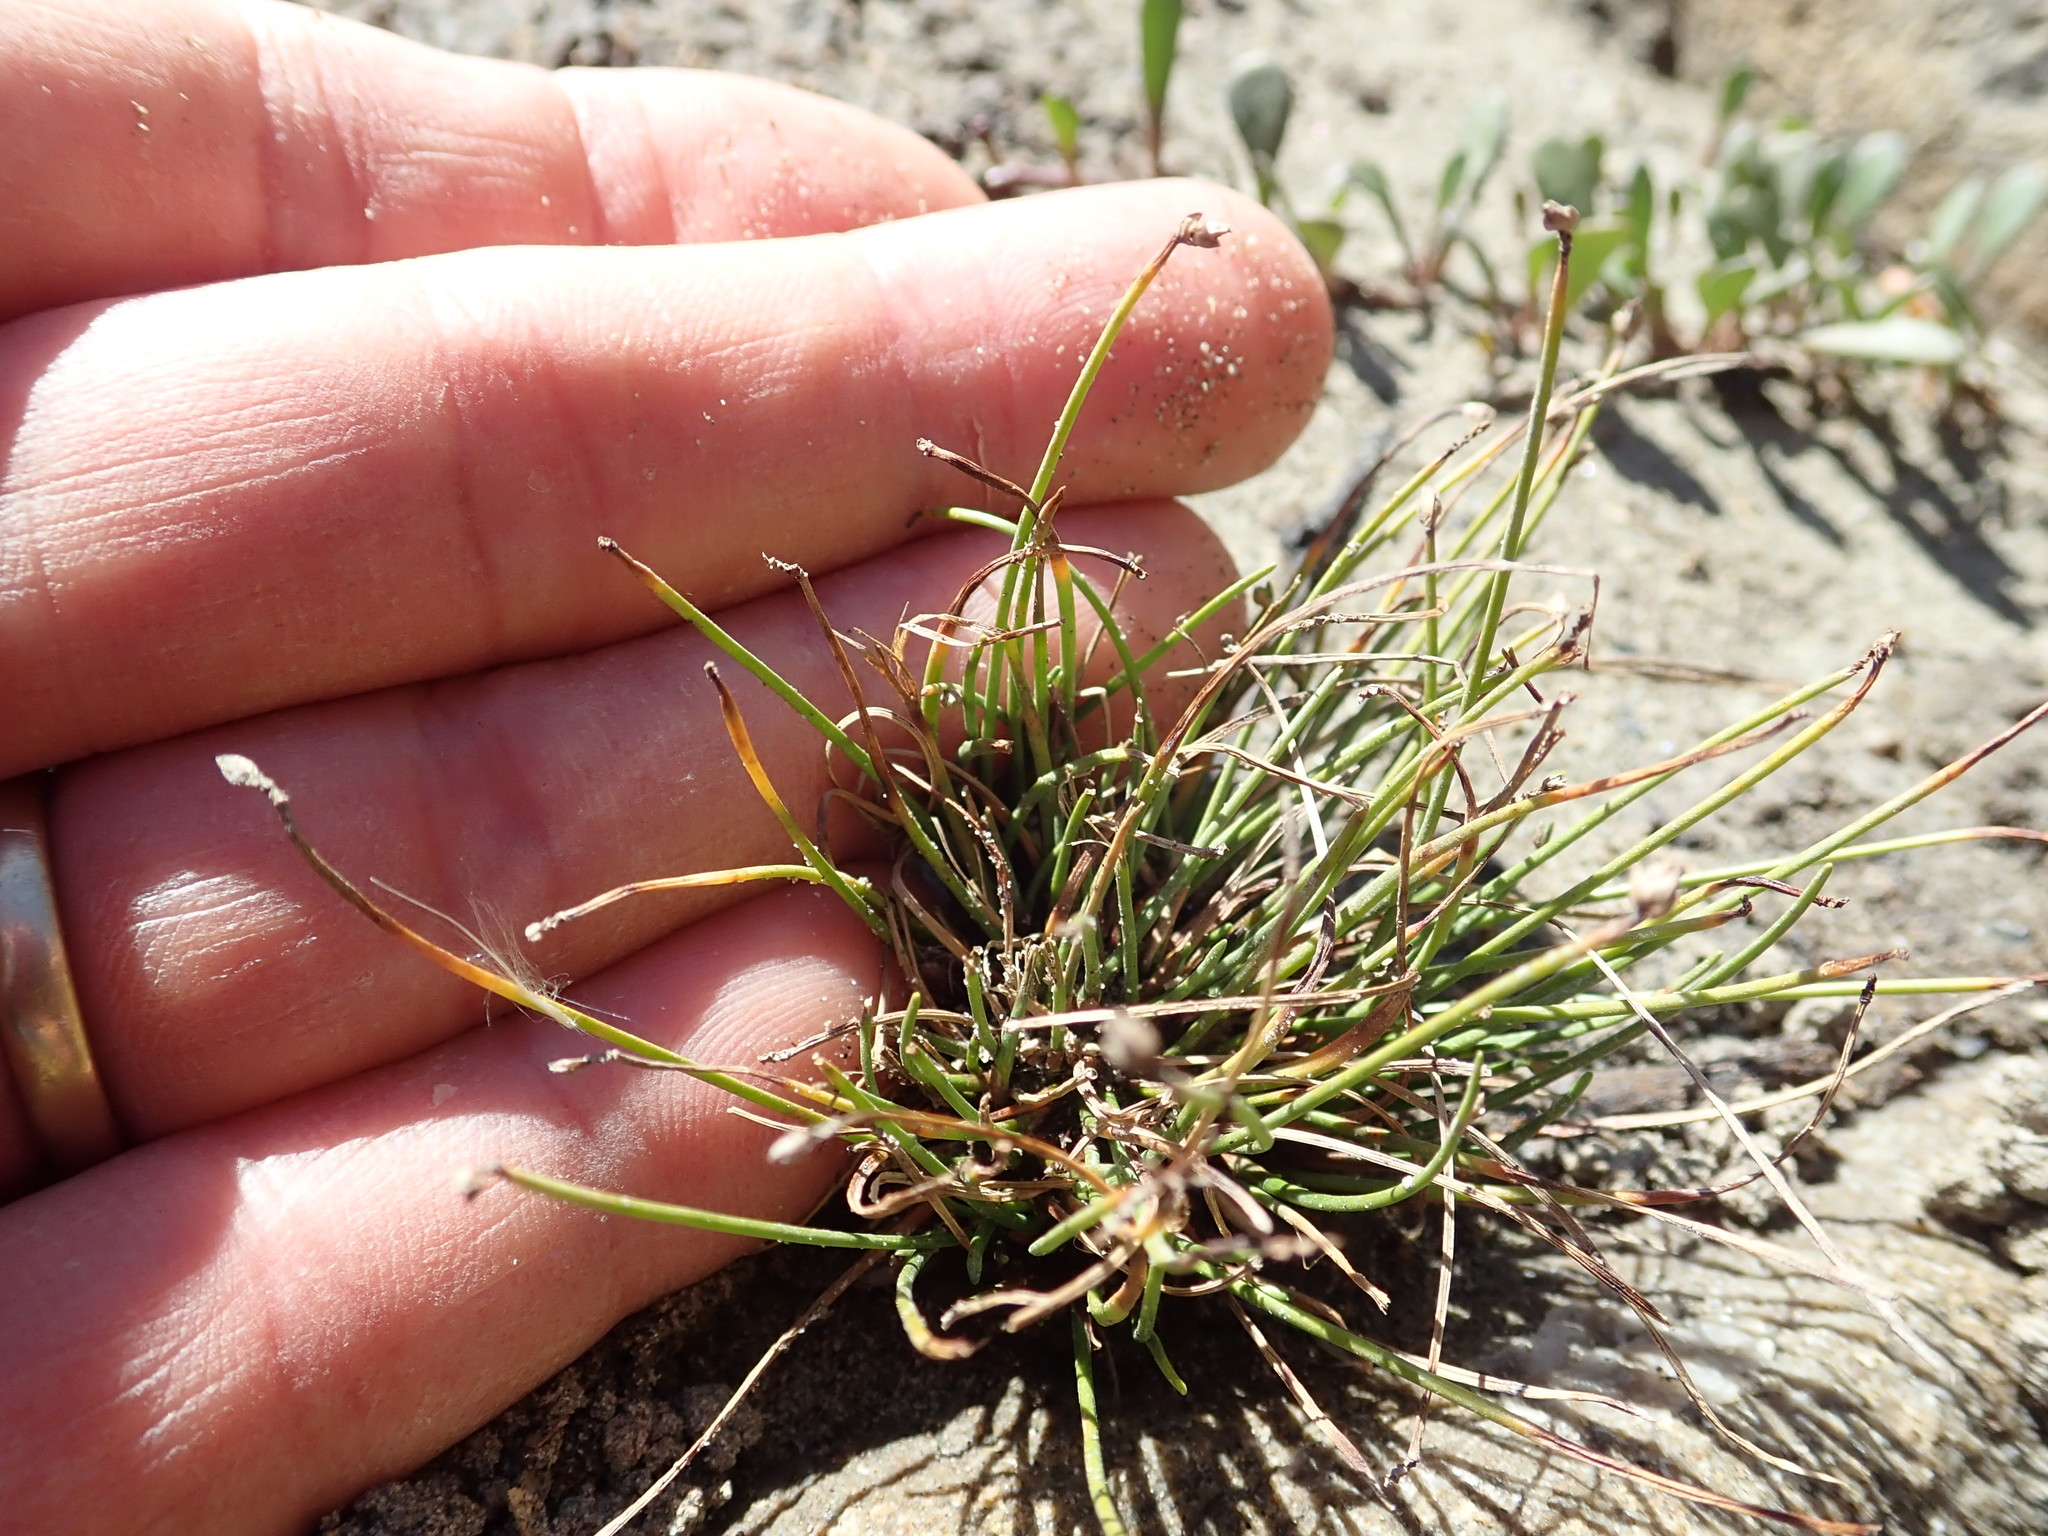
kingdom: Plantae
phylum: Tracheophyta
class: Liliopsida
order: Poales
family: Cyperaceae
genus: Isolepis
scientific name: Isolepis cernua
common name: Slender club-rush
